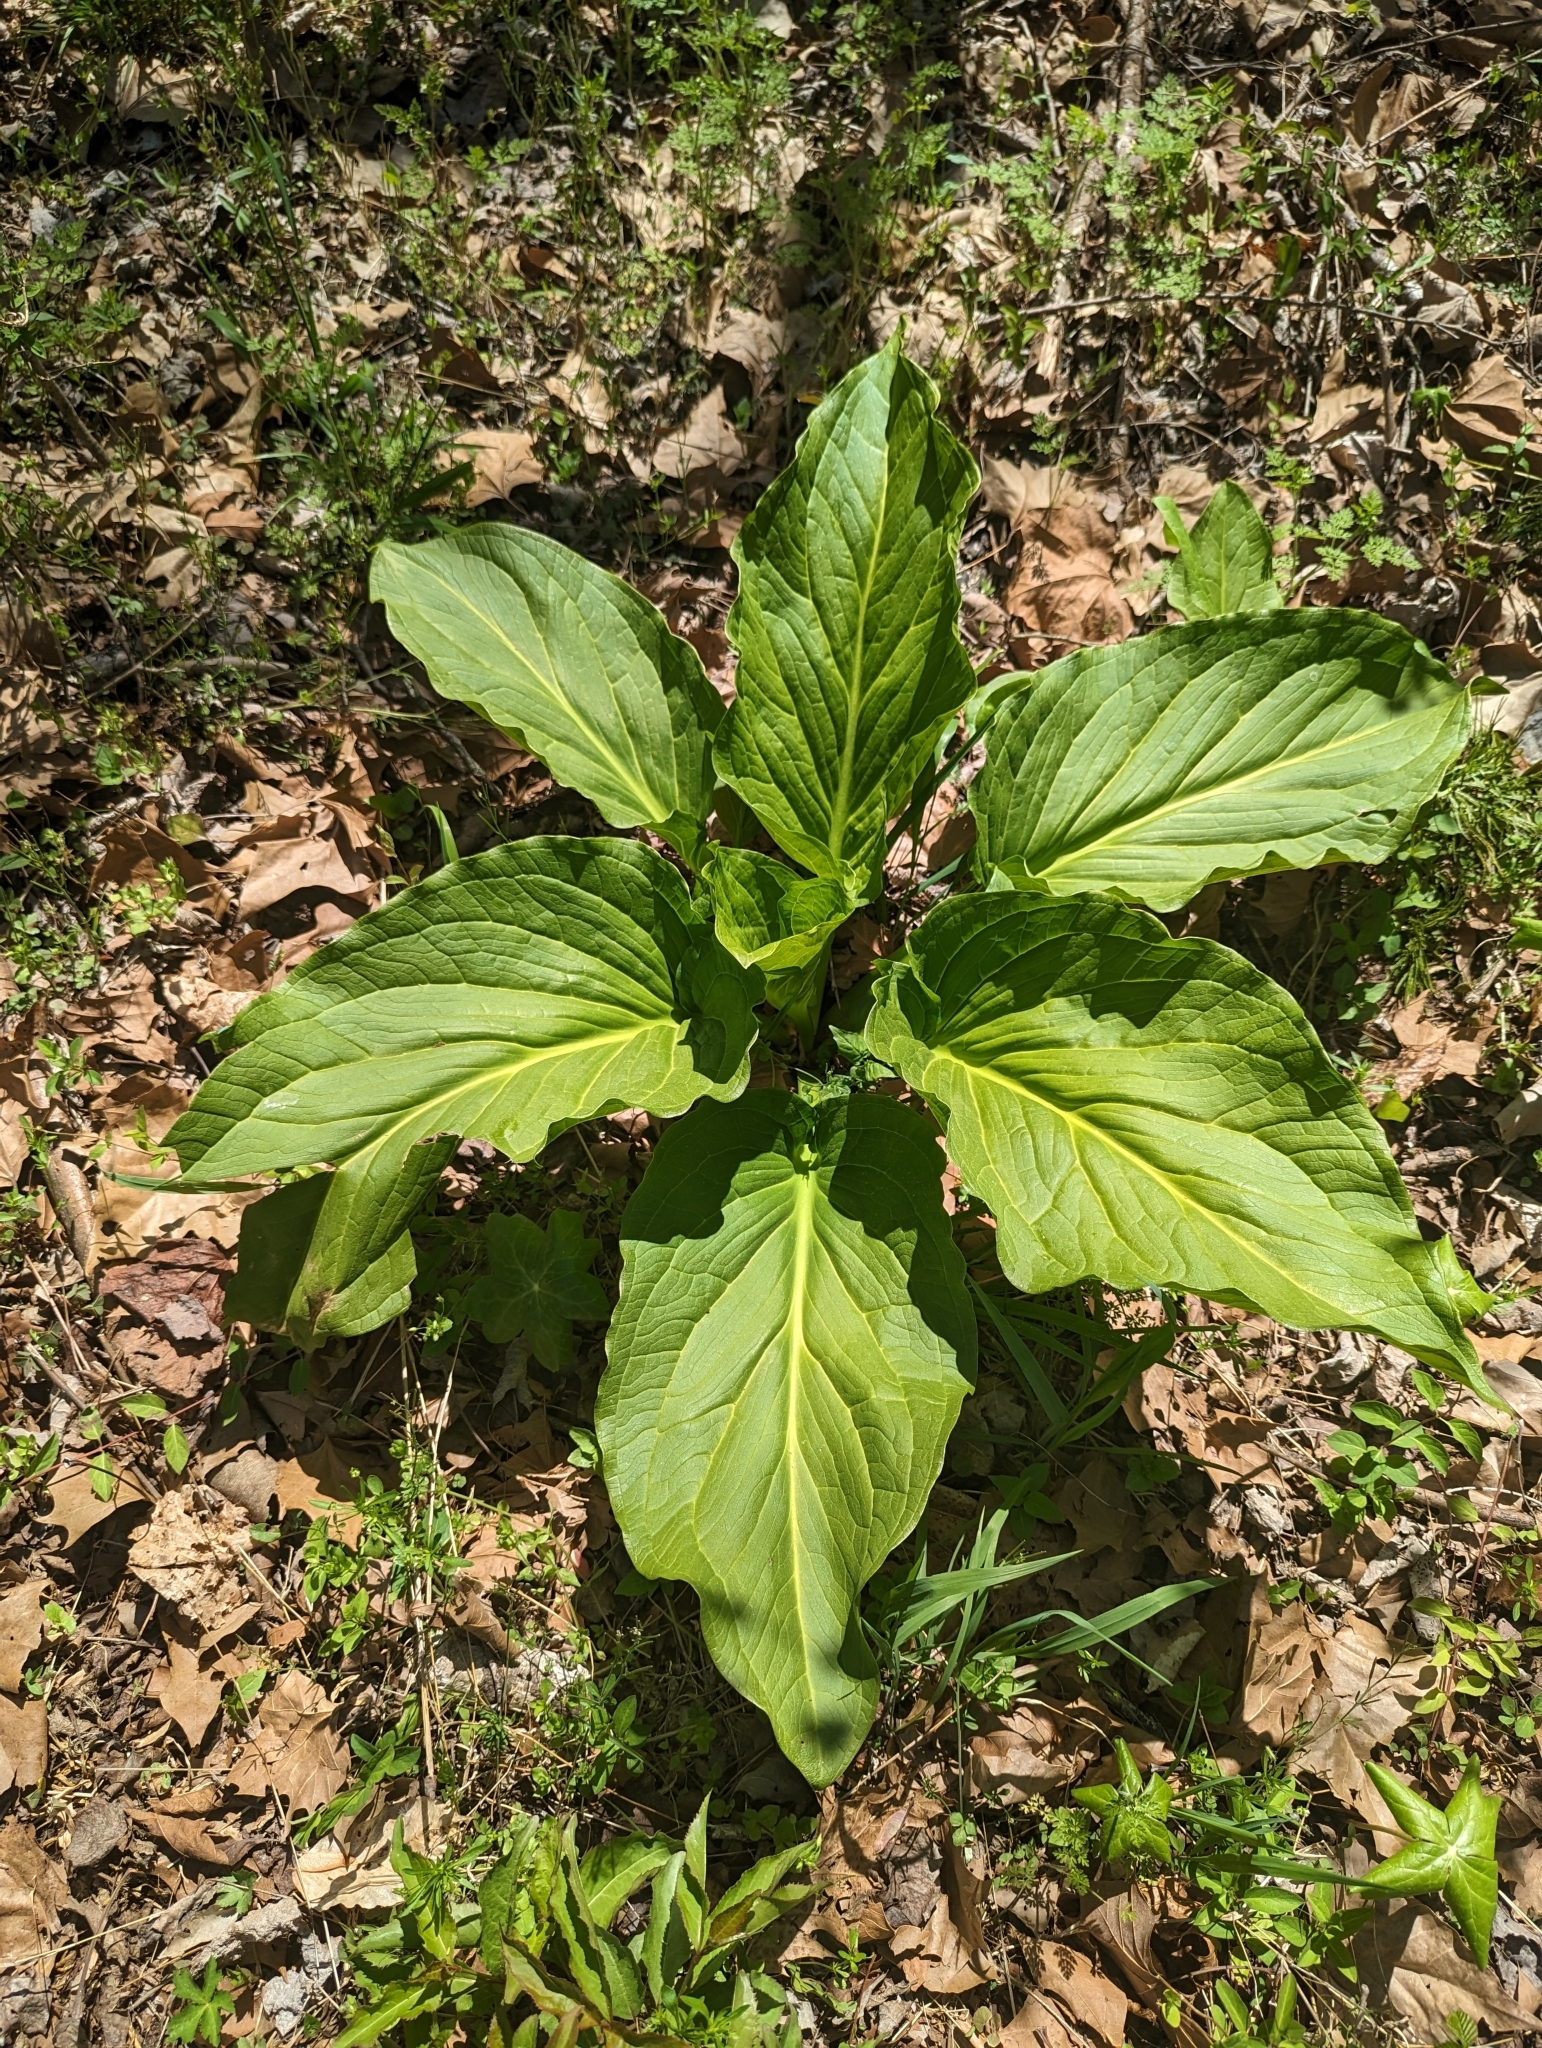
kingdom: Plantae
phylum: Tracheophyta
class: Liliopsida
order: Alismatales
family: Araceae
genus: Symplocarpus
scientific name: Symplocarpus foetidus
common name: Eastern skunk cabbage
